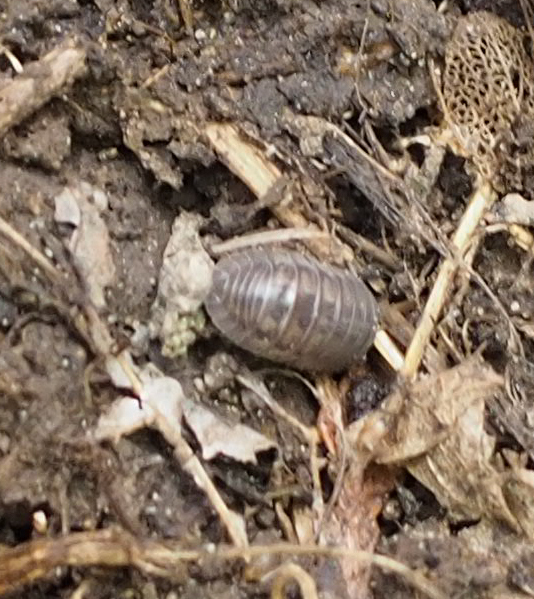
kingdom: Animalia
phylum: Arthropoda
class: Malacostraca
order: Isopoda
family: Armadillidiidae
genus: Armadillidium
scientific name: Armadillidium nasatum
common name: Isopod
